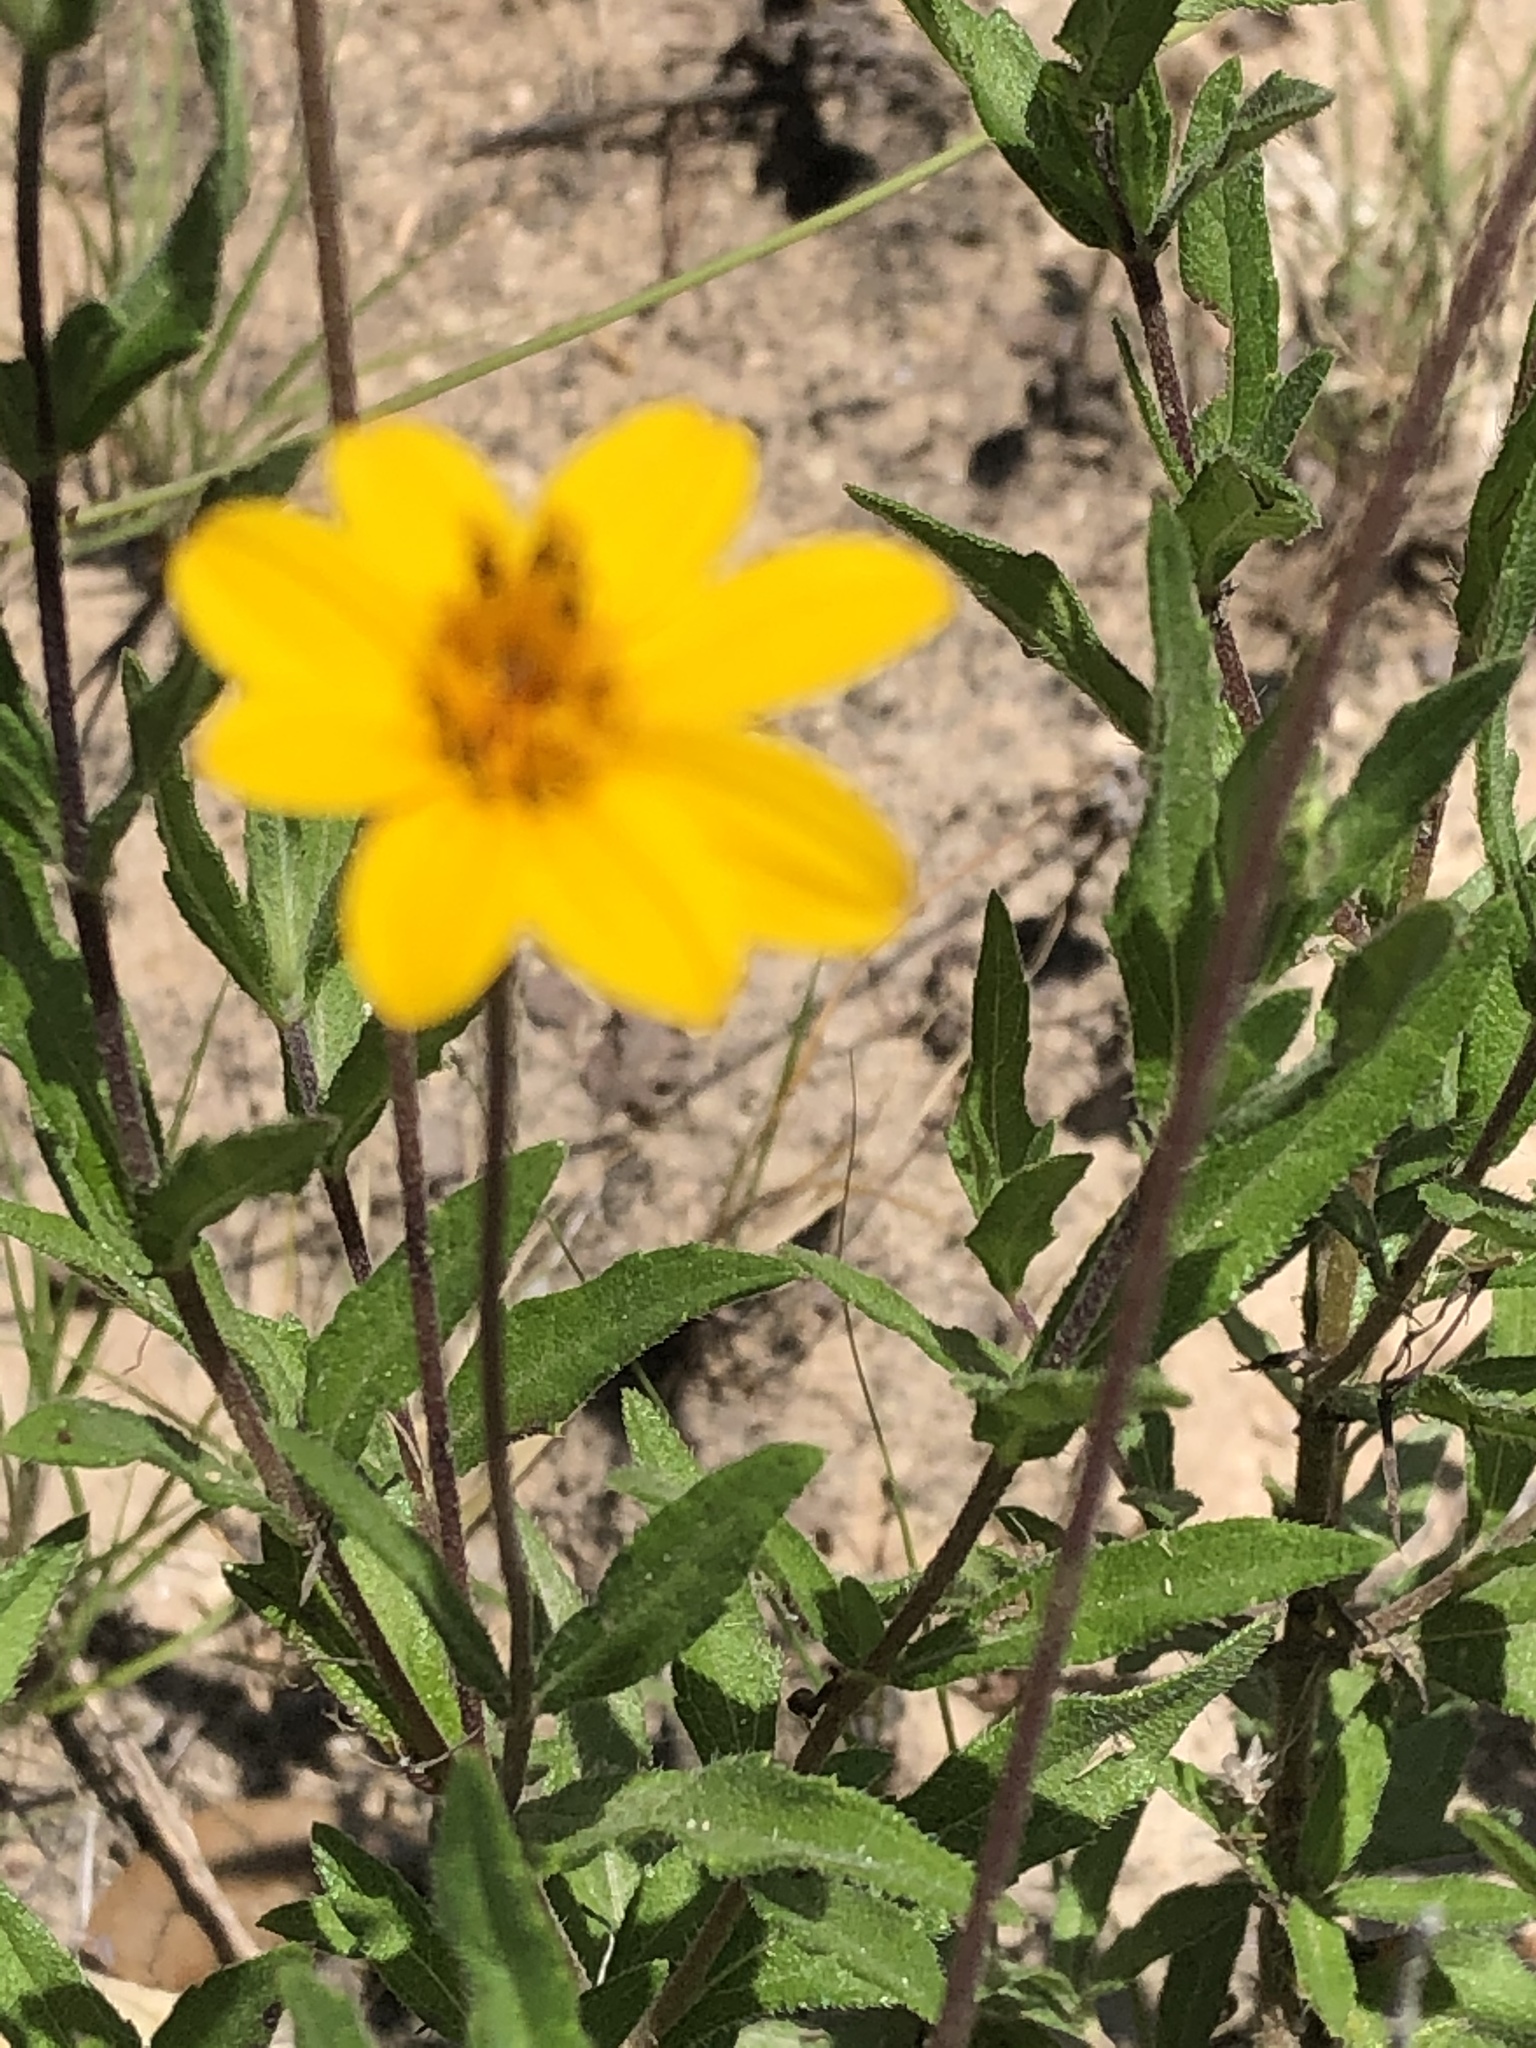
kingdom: Plantae
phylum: Tracheophyta
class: Magnoliopsida
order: Asterales
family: Asteraceae
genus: Wedelia
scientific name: Wedelia acapulcensis
